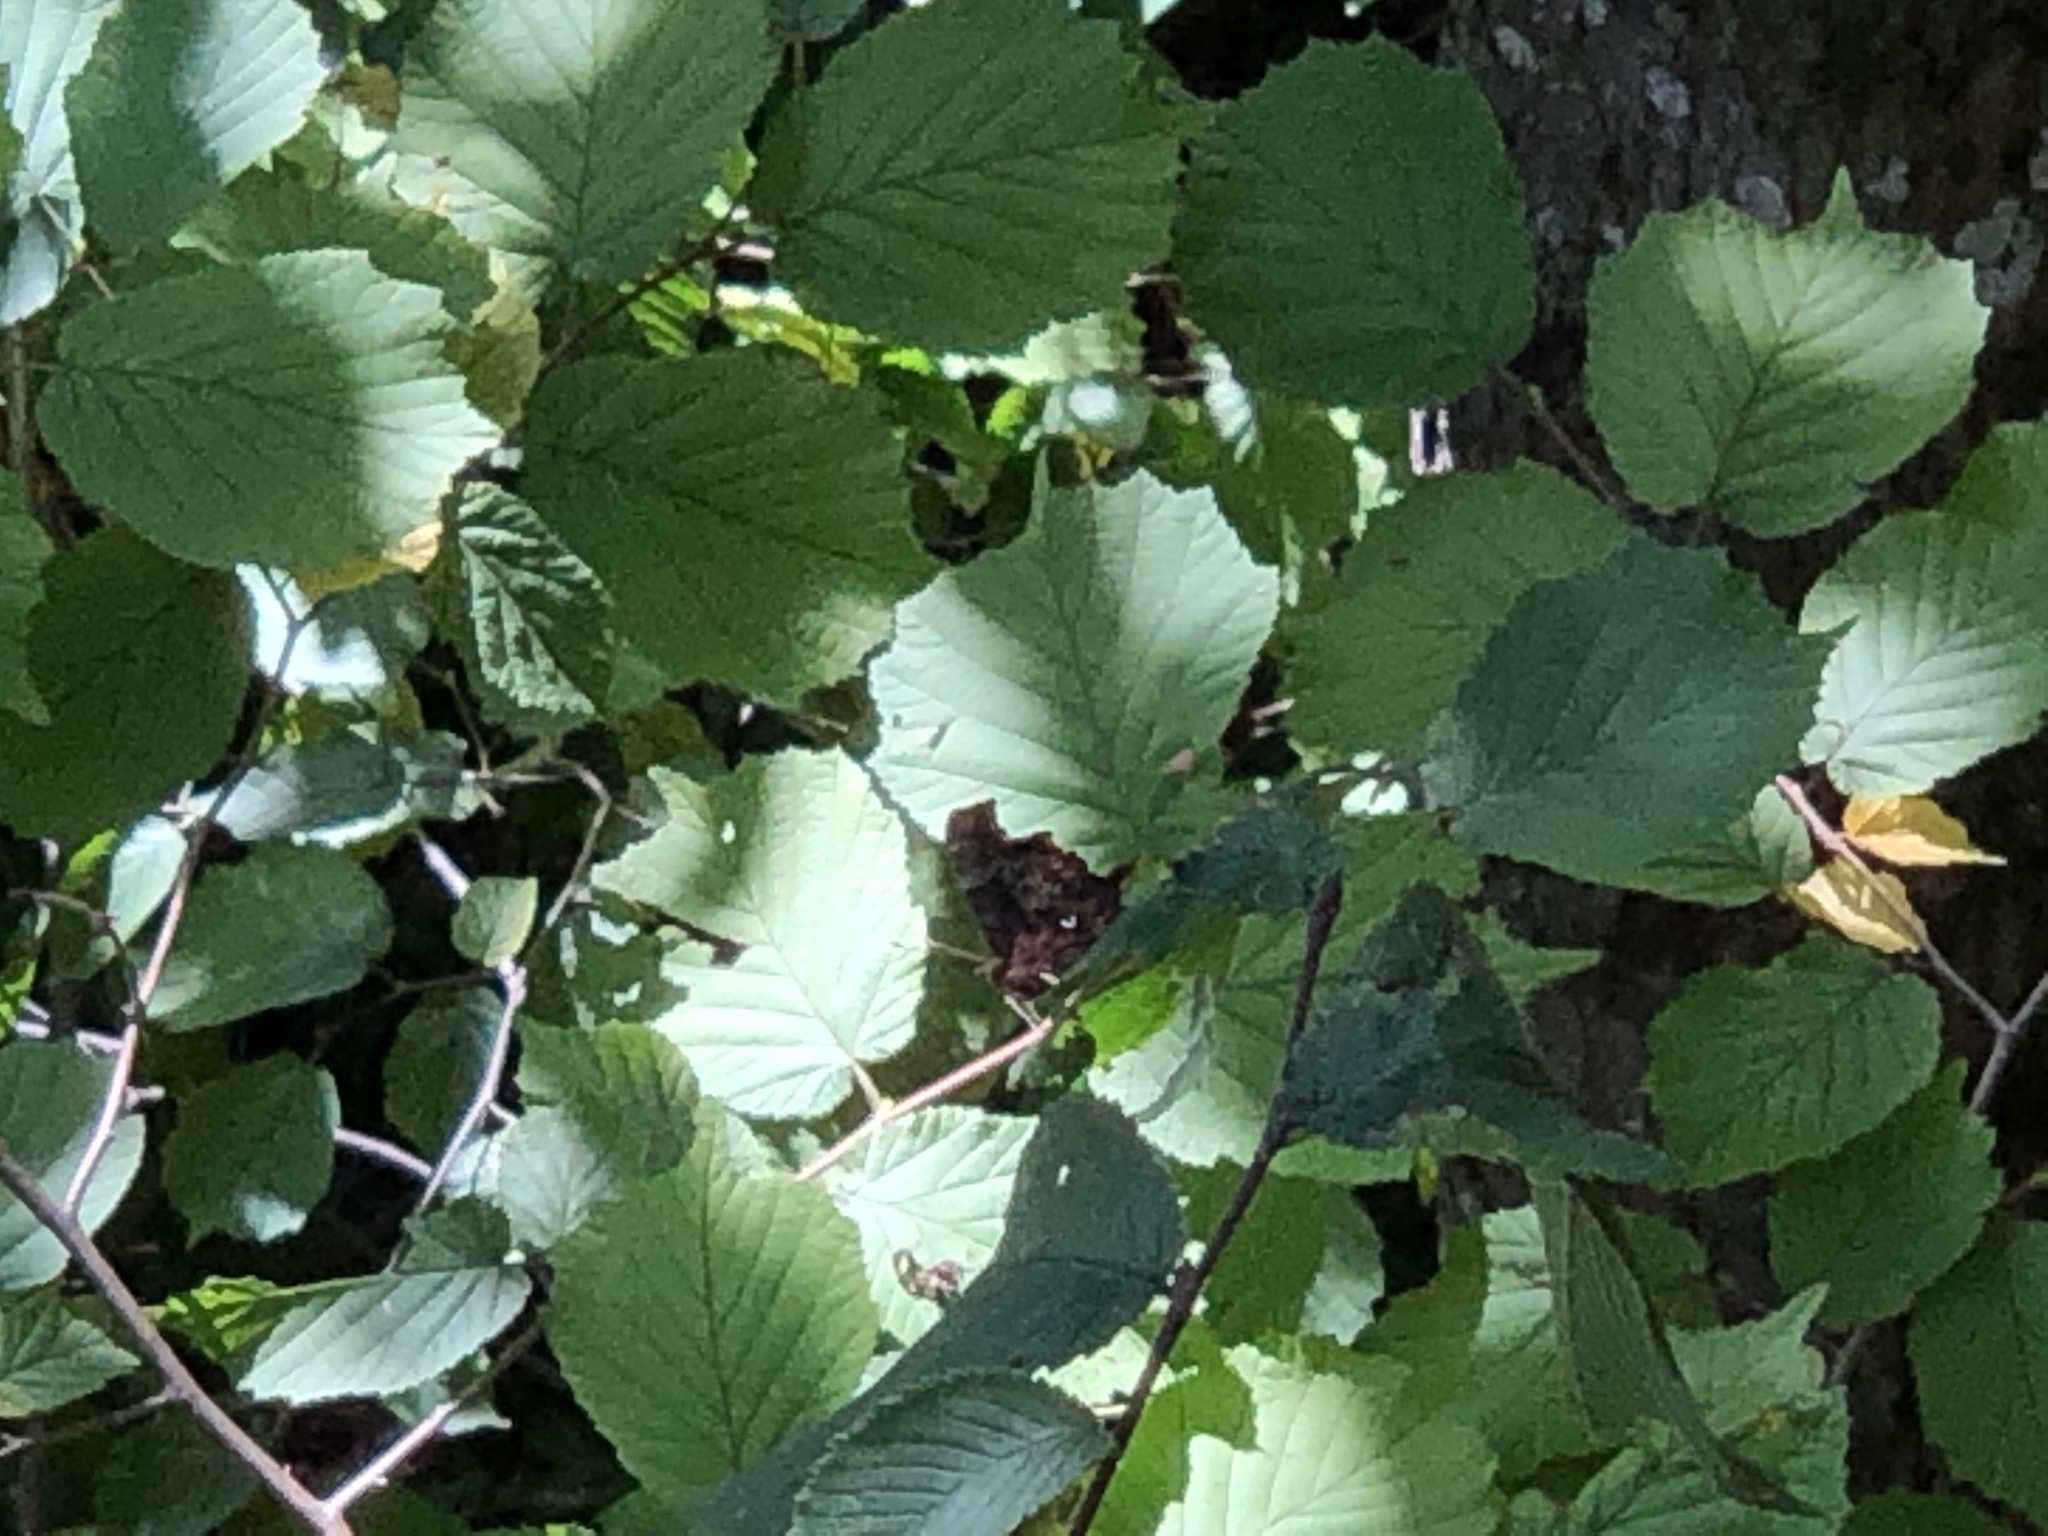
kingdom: Animalia
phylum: Arthropoda
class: Insecta
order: Lepidoptera
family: Nymphalidae
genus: Polygonia
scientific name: Polygonia c-album
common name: Comma
